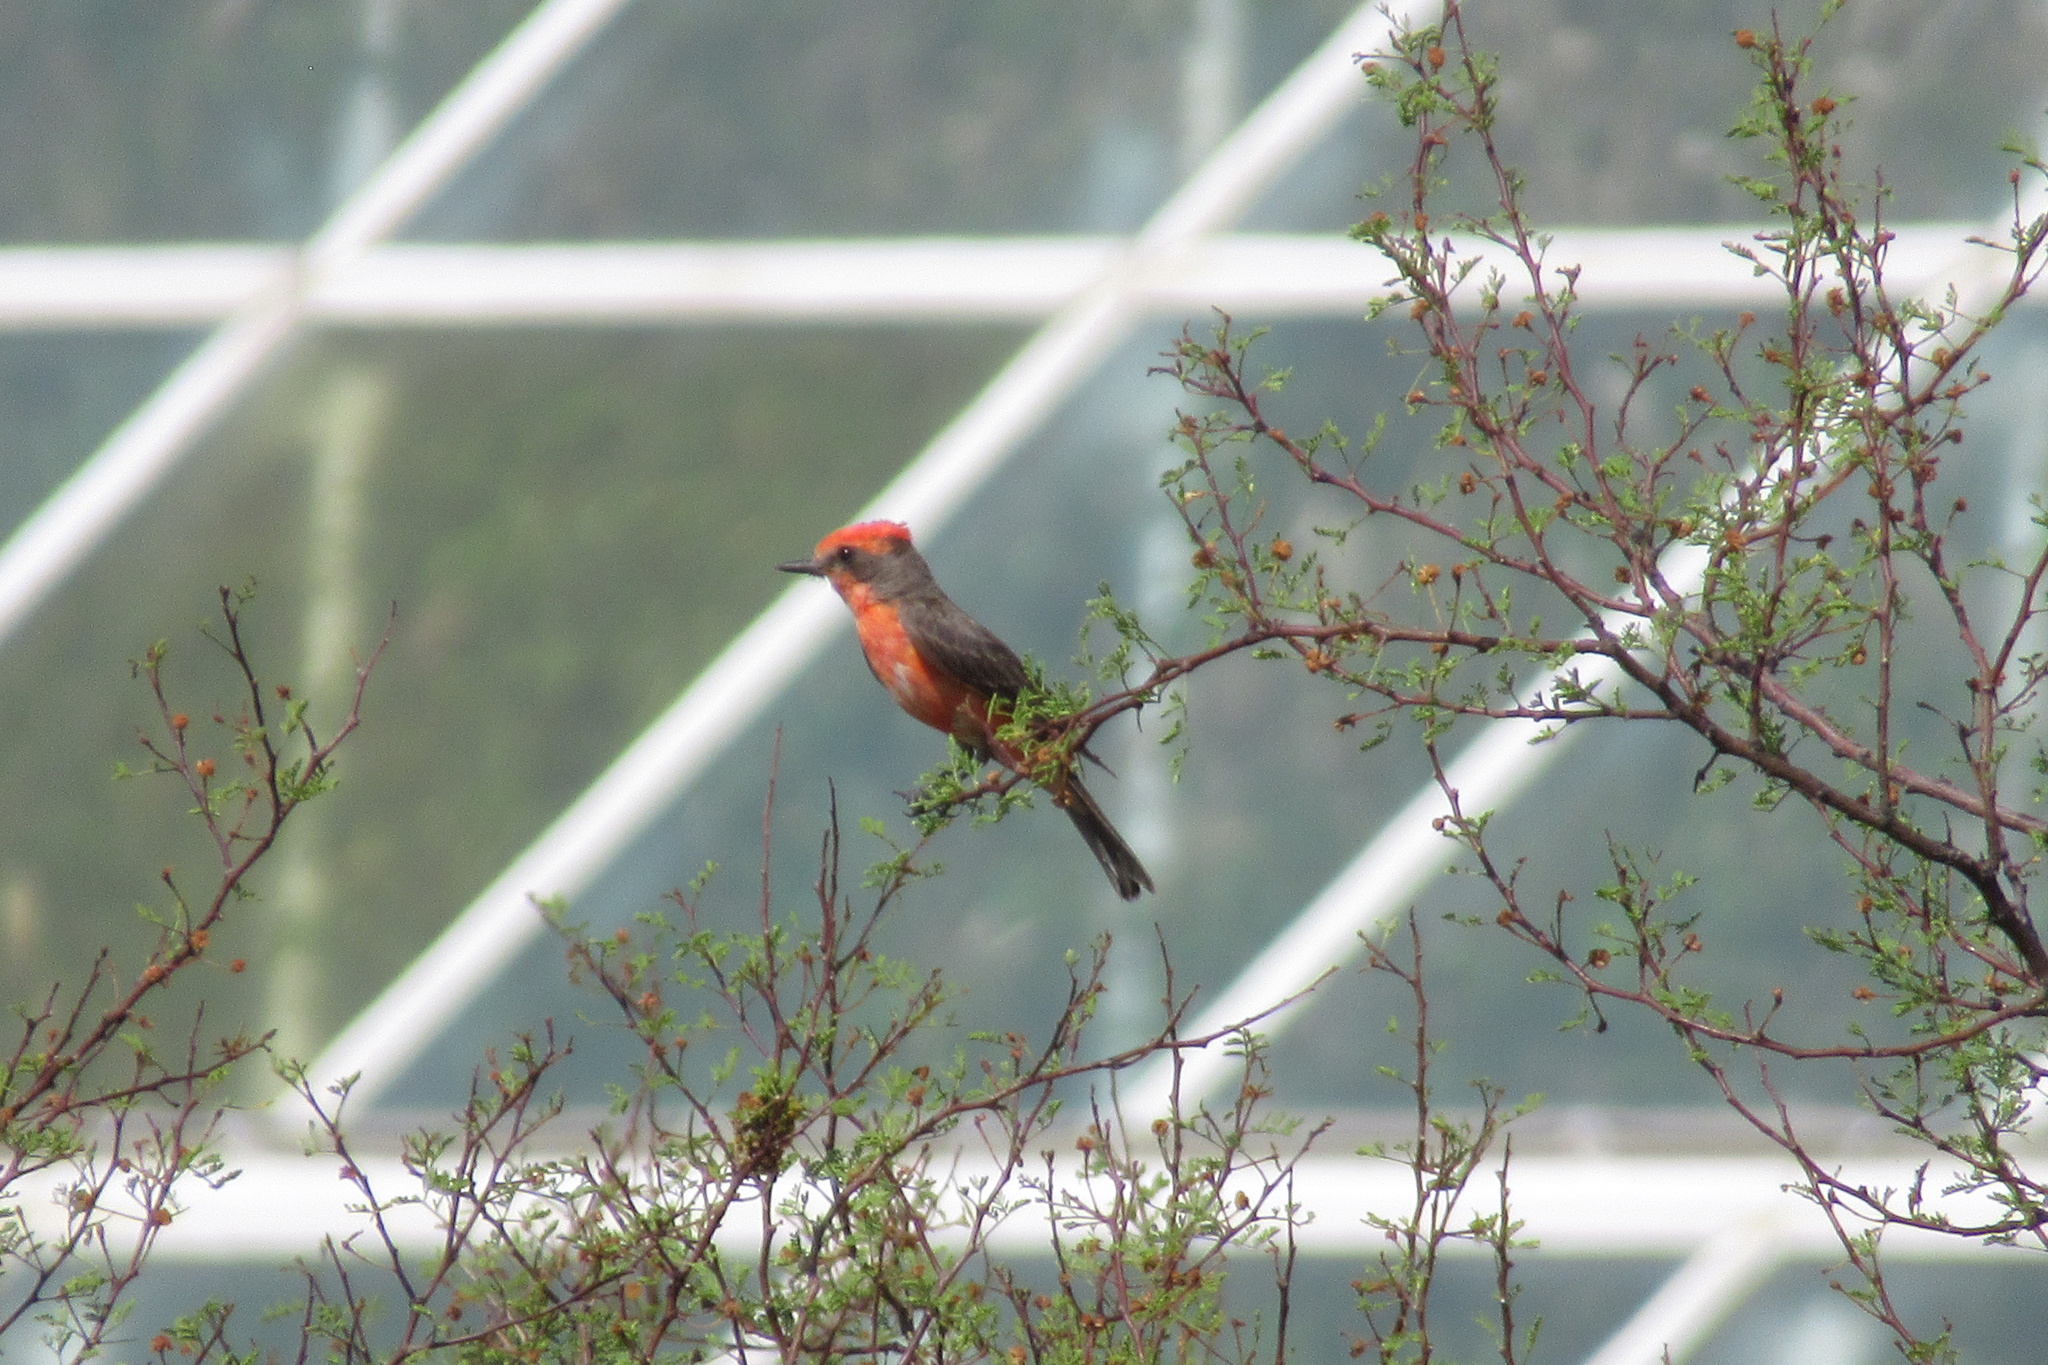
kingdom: Animalia
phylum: Chordata
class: Aves
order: Passeriformes
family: Tyrannidae
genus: Pyrocephalus
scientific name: Pyrocephalus rubinus
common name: Vermilion flycatcher
